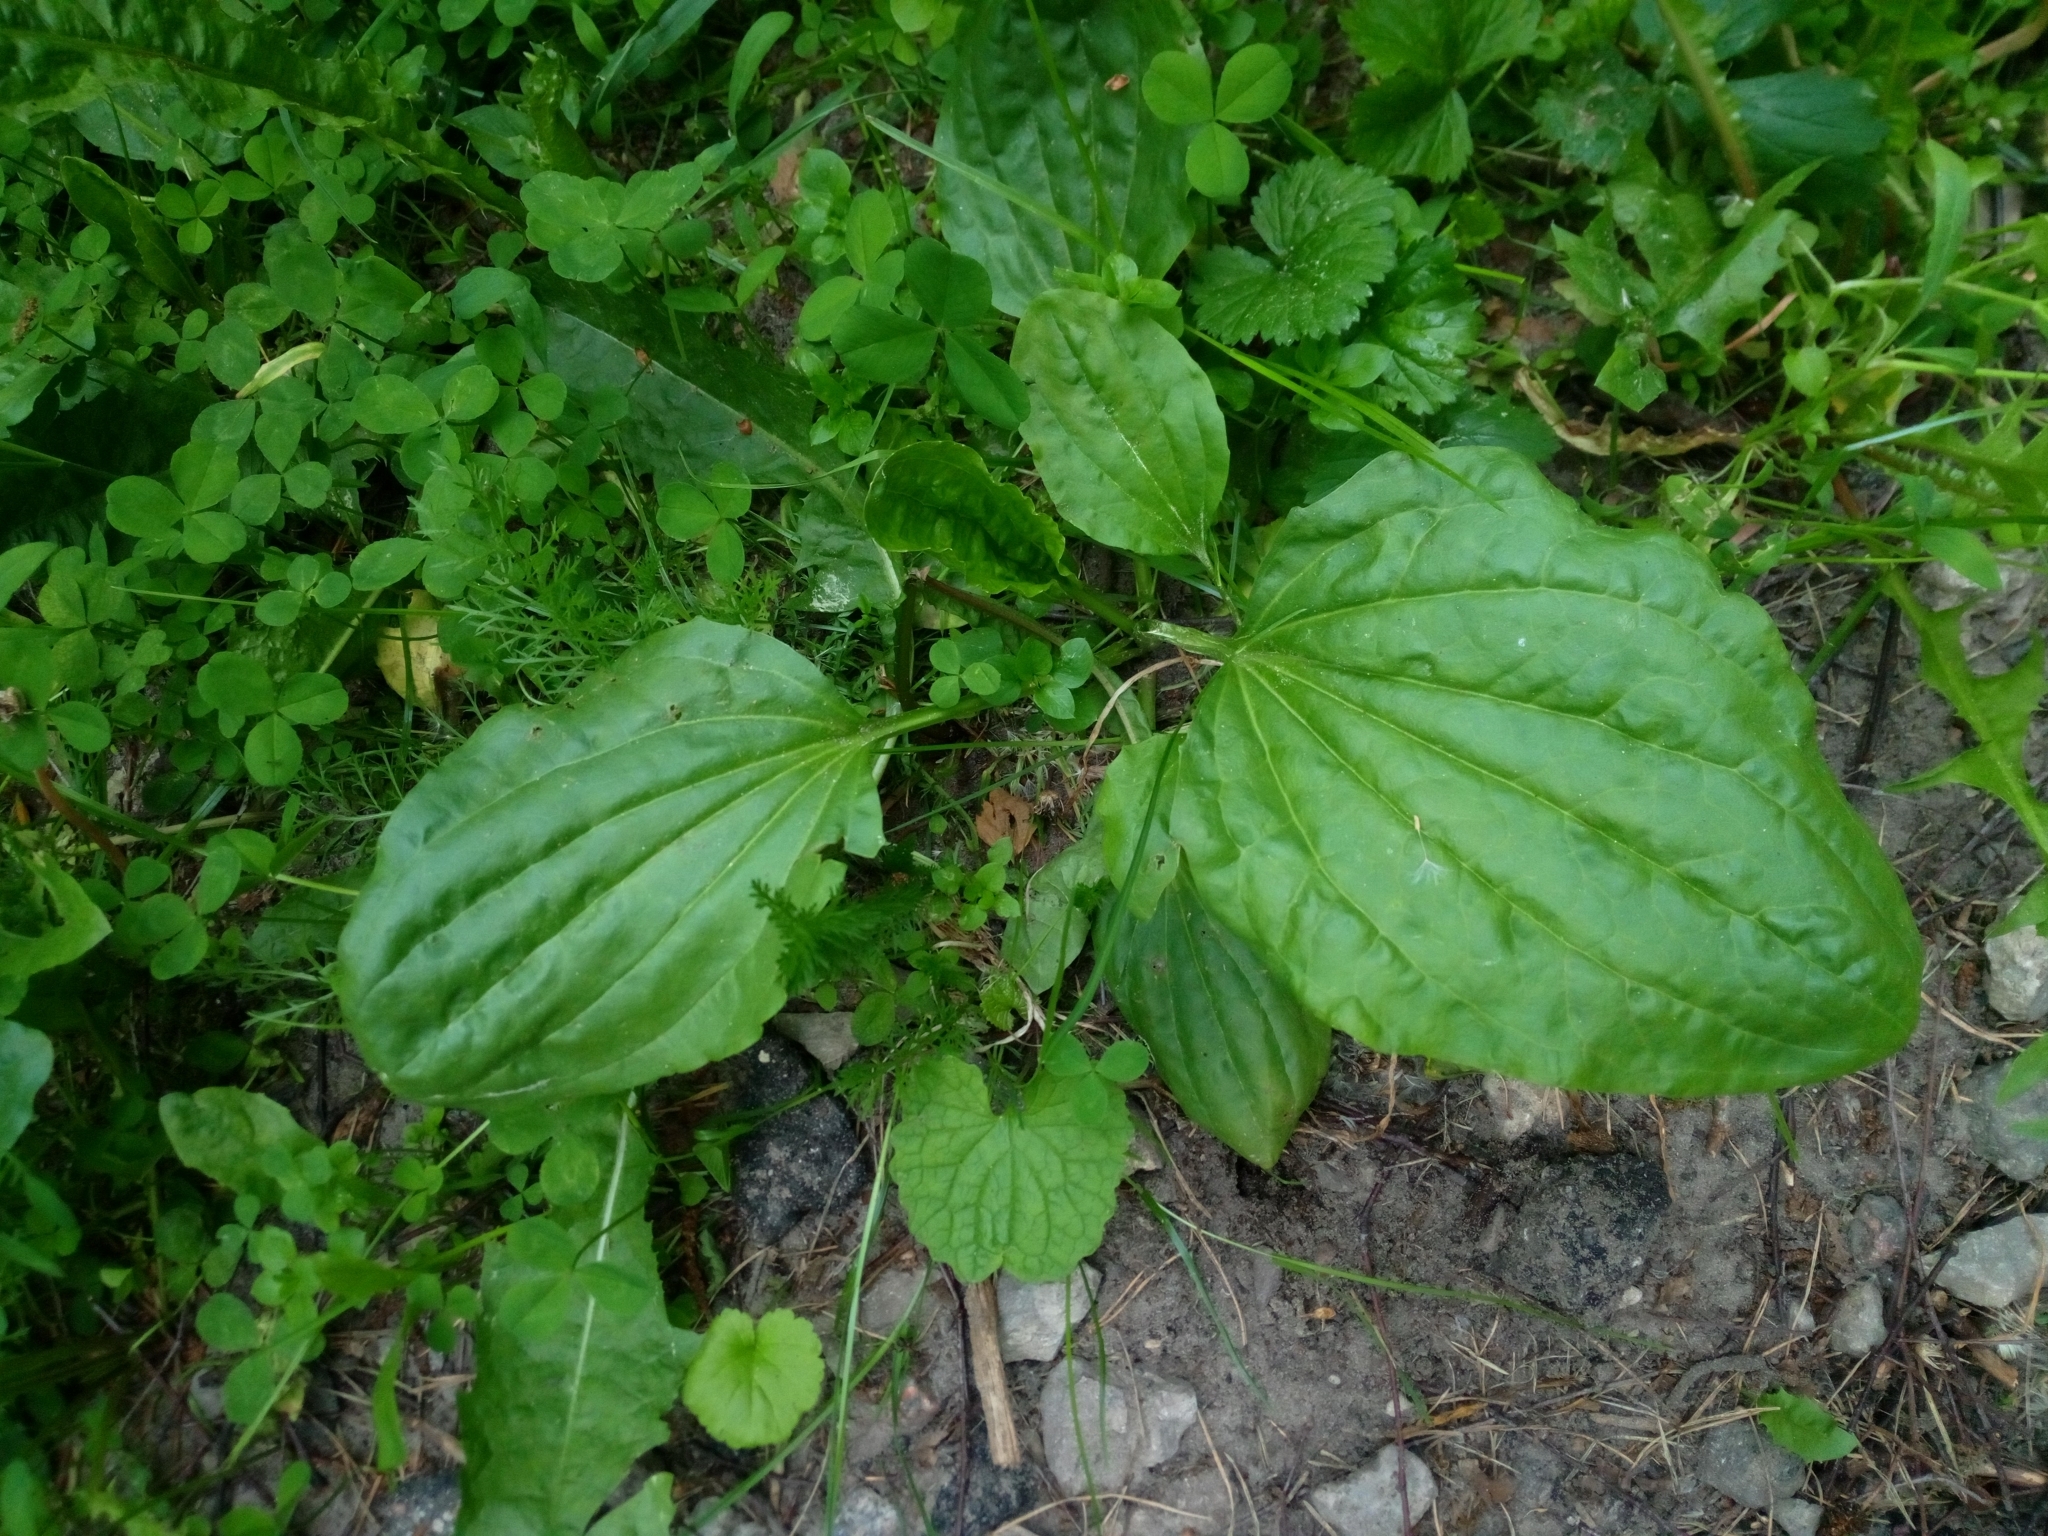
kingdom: Plantae
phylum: Tracheophyta
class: Magnoliopsida
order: Lamiales
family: Plantaginaceae
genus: Plantago
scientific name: Plantago major
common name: Common plantain
